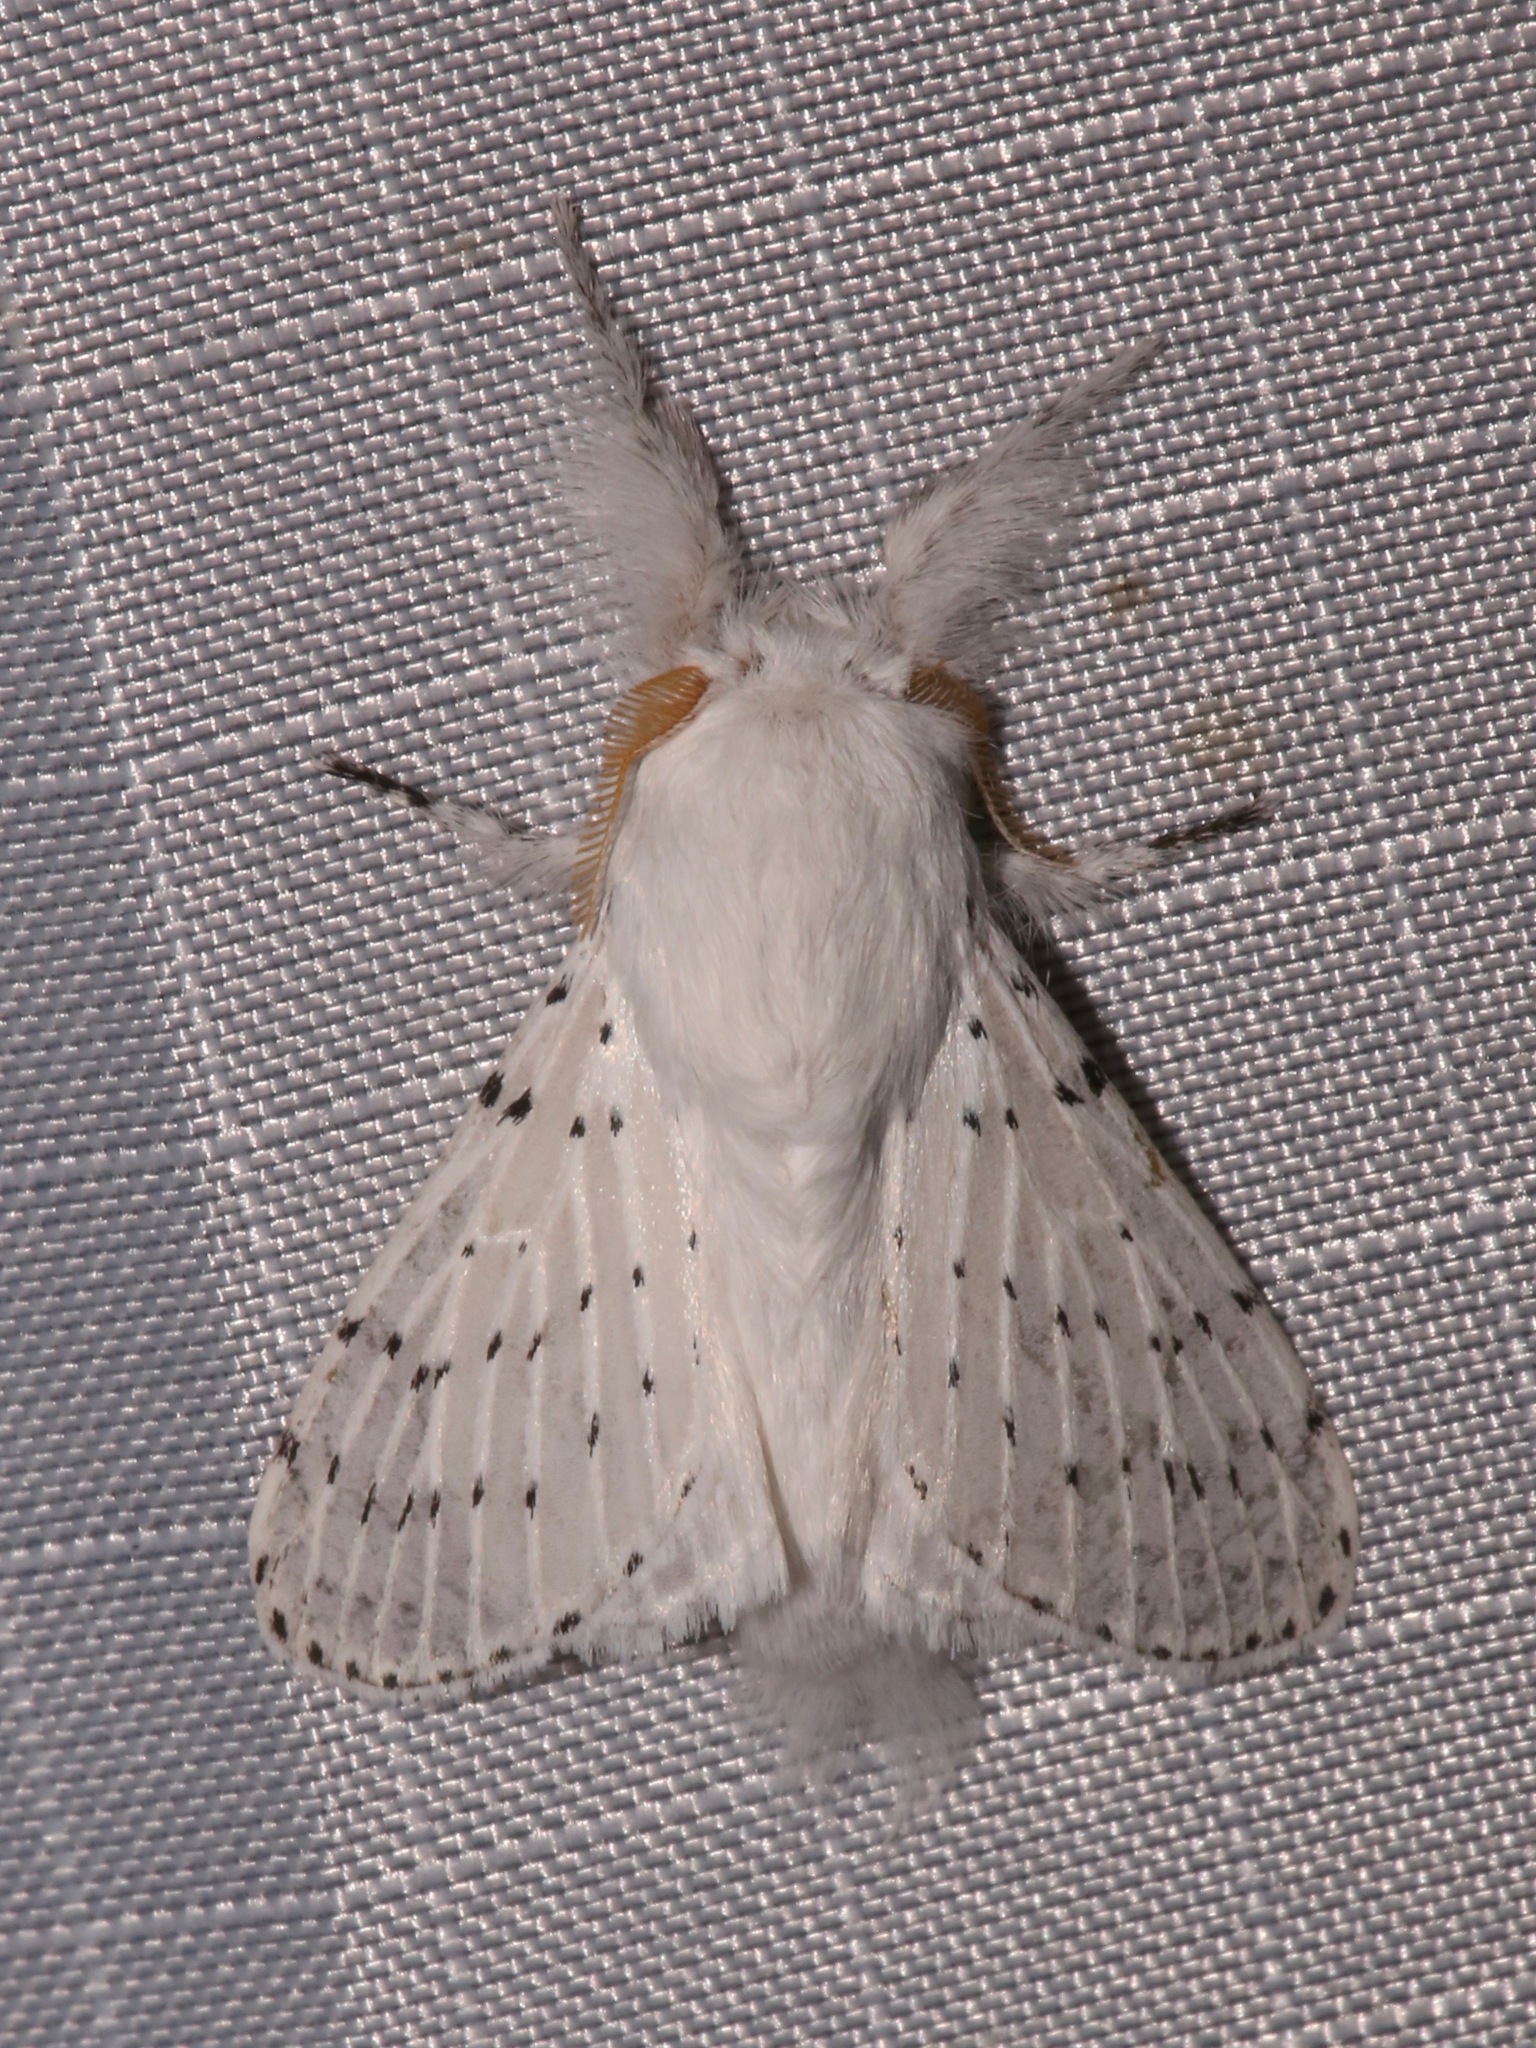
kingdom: Animalia
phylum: Arthropoda
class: Insecta
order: Lepidoptera
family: Lasiocampidae
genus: Artace
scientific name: Artace cribrarius
